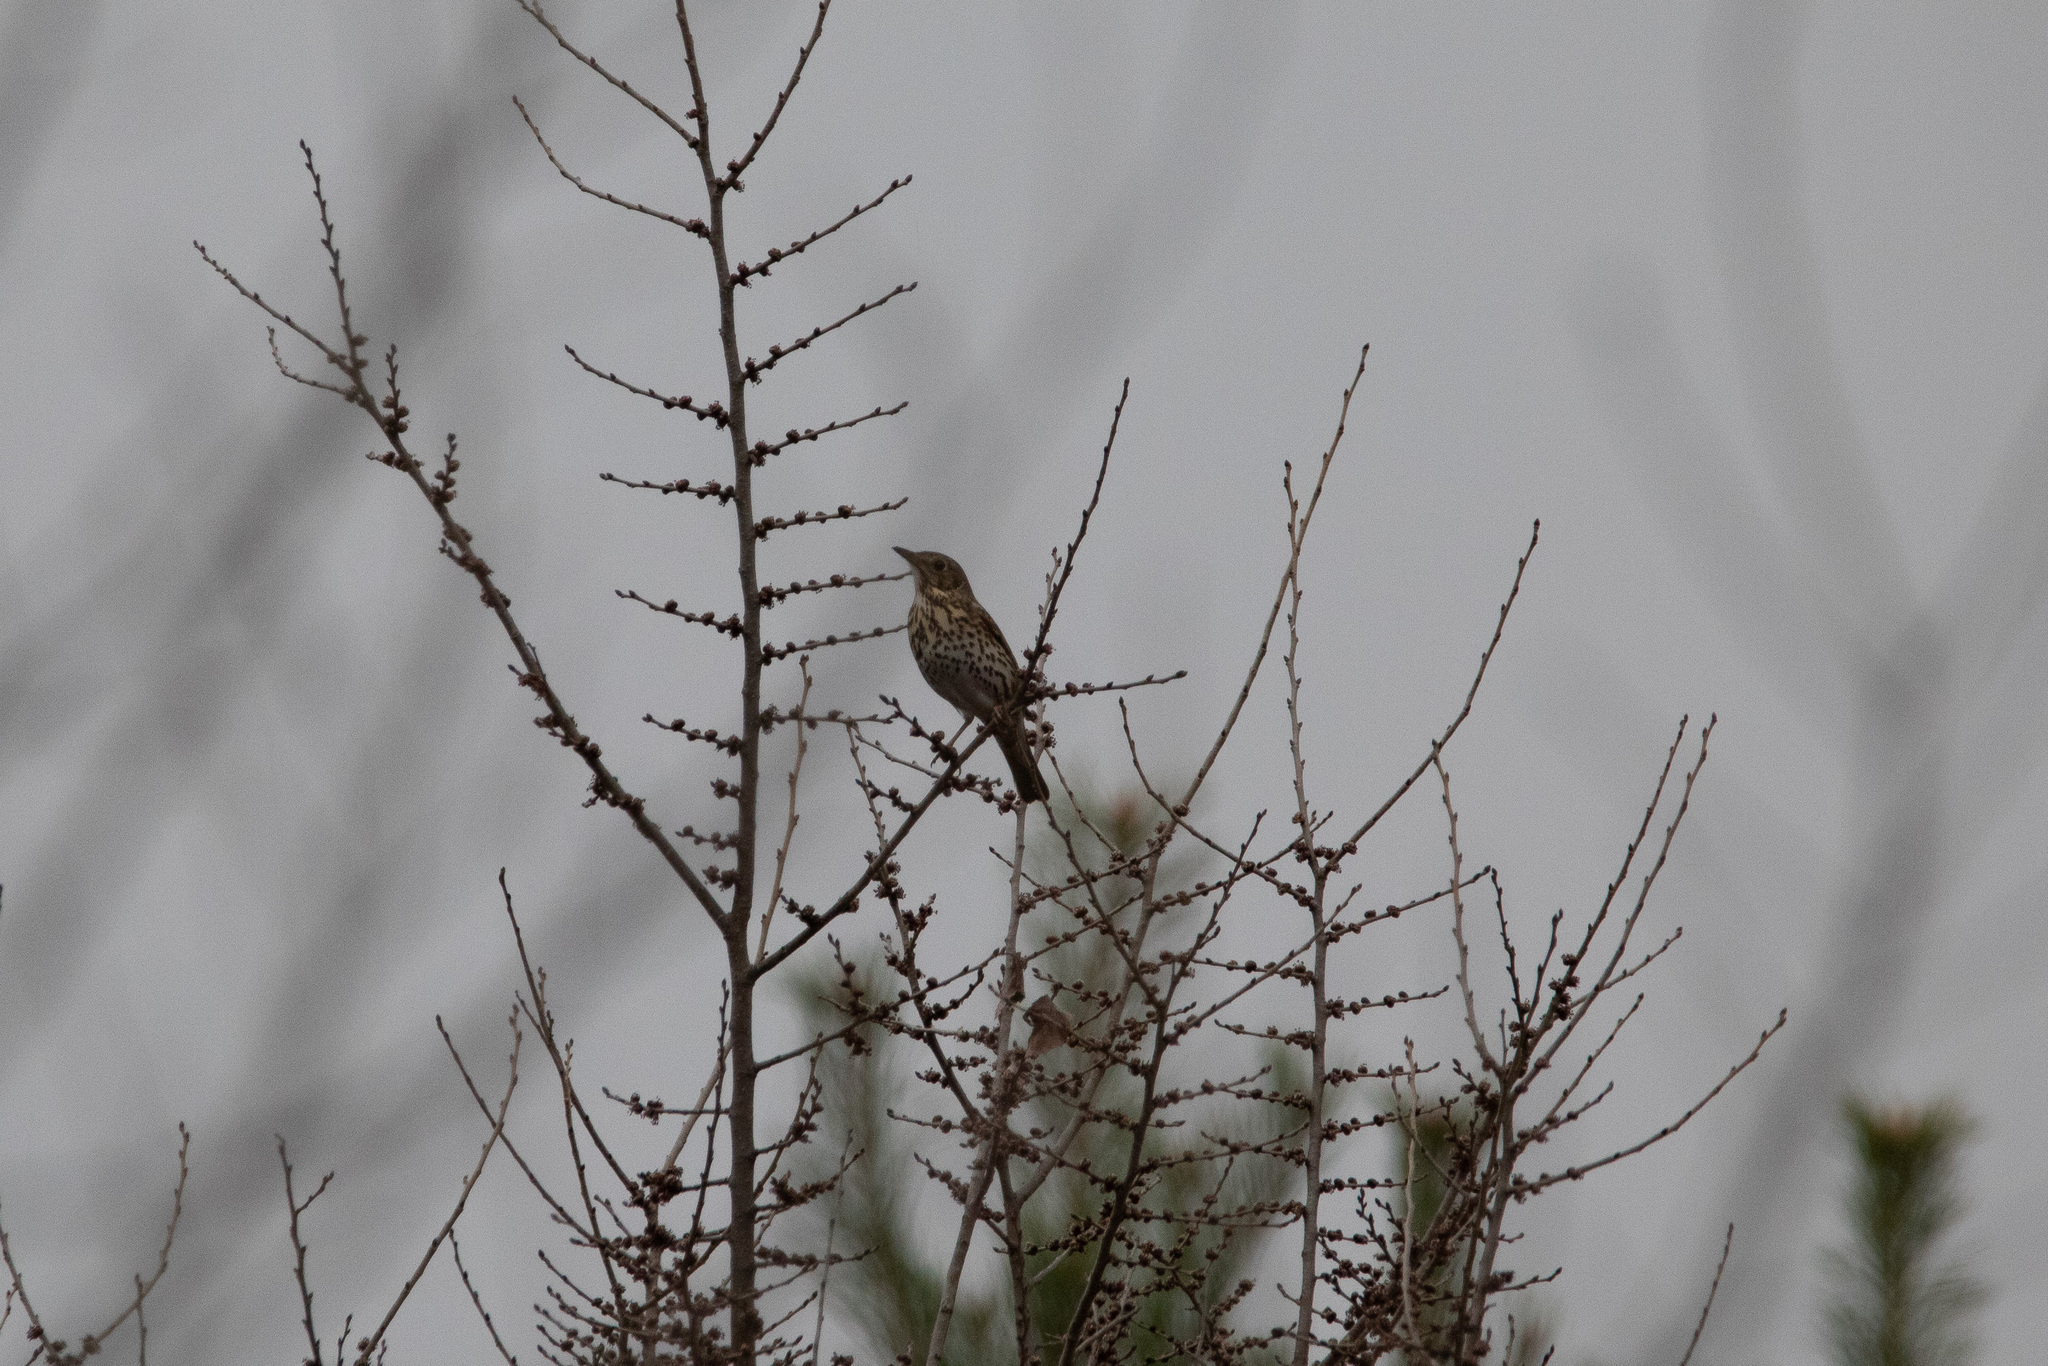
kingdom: Animalia
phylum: Chordata
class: Aves
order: Passeriformes
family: Turdidae
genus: Turdus
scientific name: Turdus philomelos
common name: Song thrush
